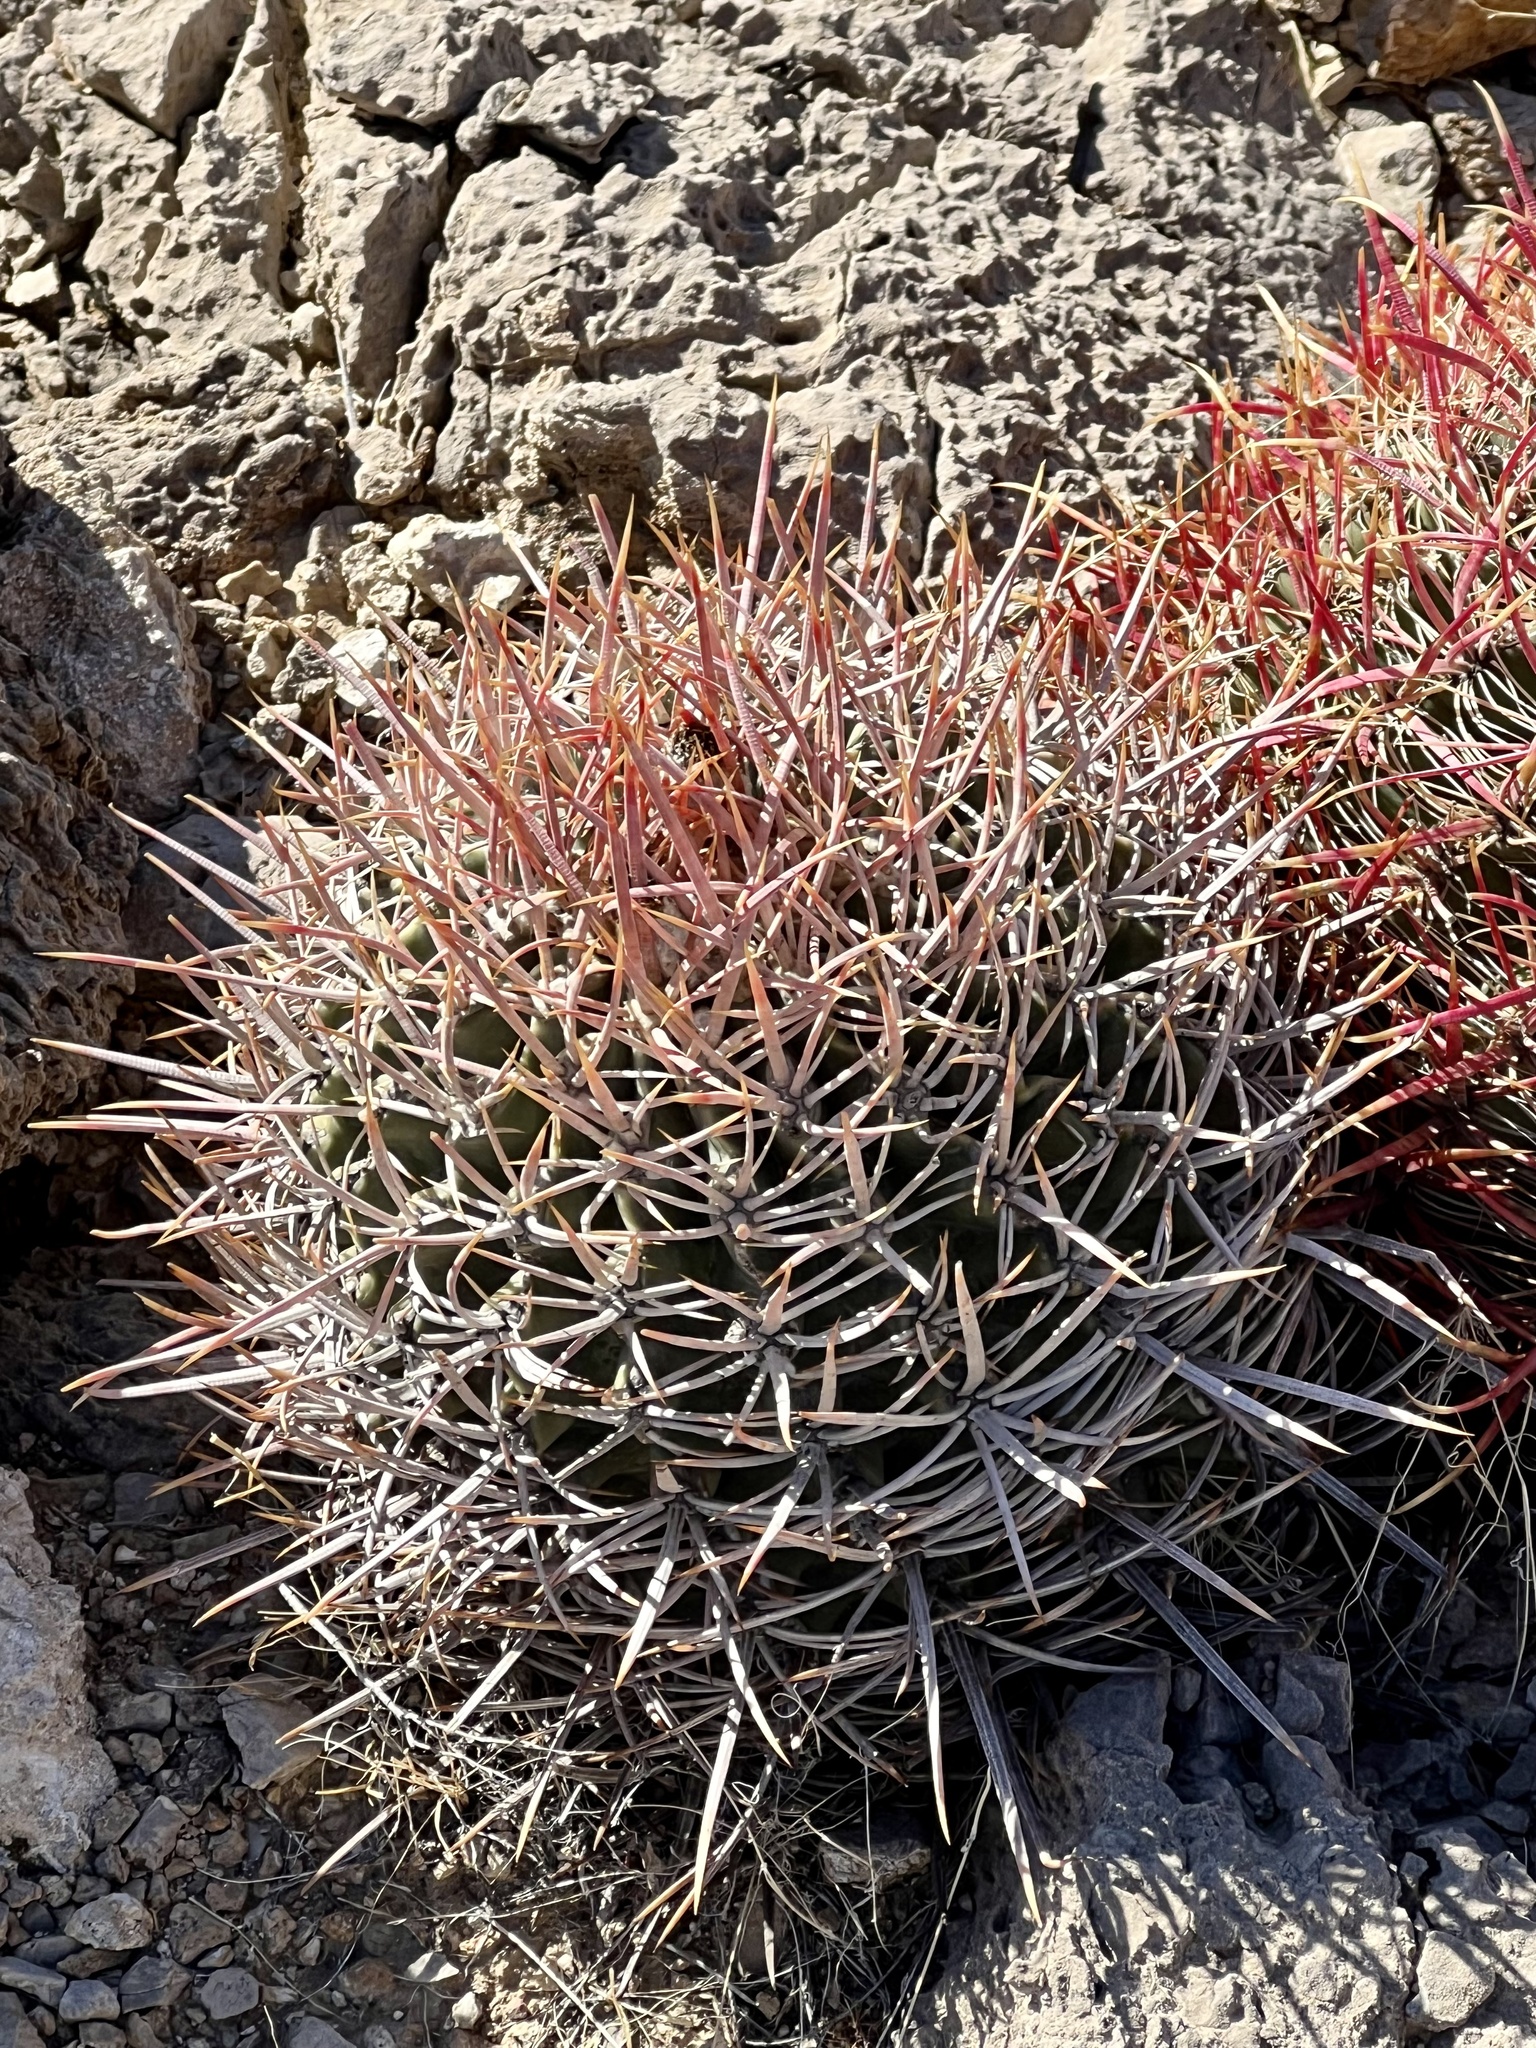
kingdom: Plantae
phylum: Tracheophyta
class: Magnoliopsida
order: Caryophyllales
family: Cactaceae
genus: Echinocactus
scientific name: Echinocactus polycephalus
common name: Cottontop cactus
